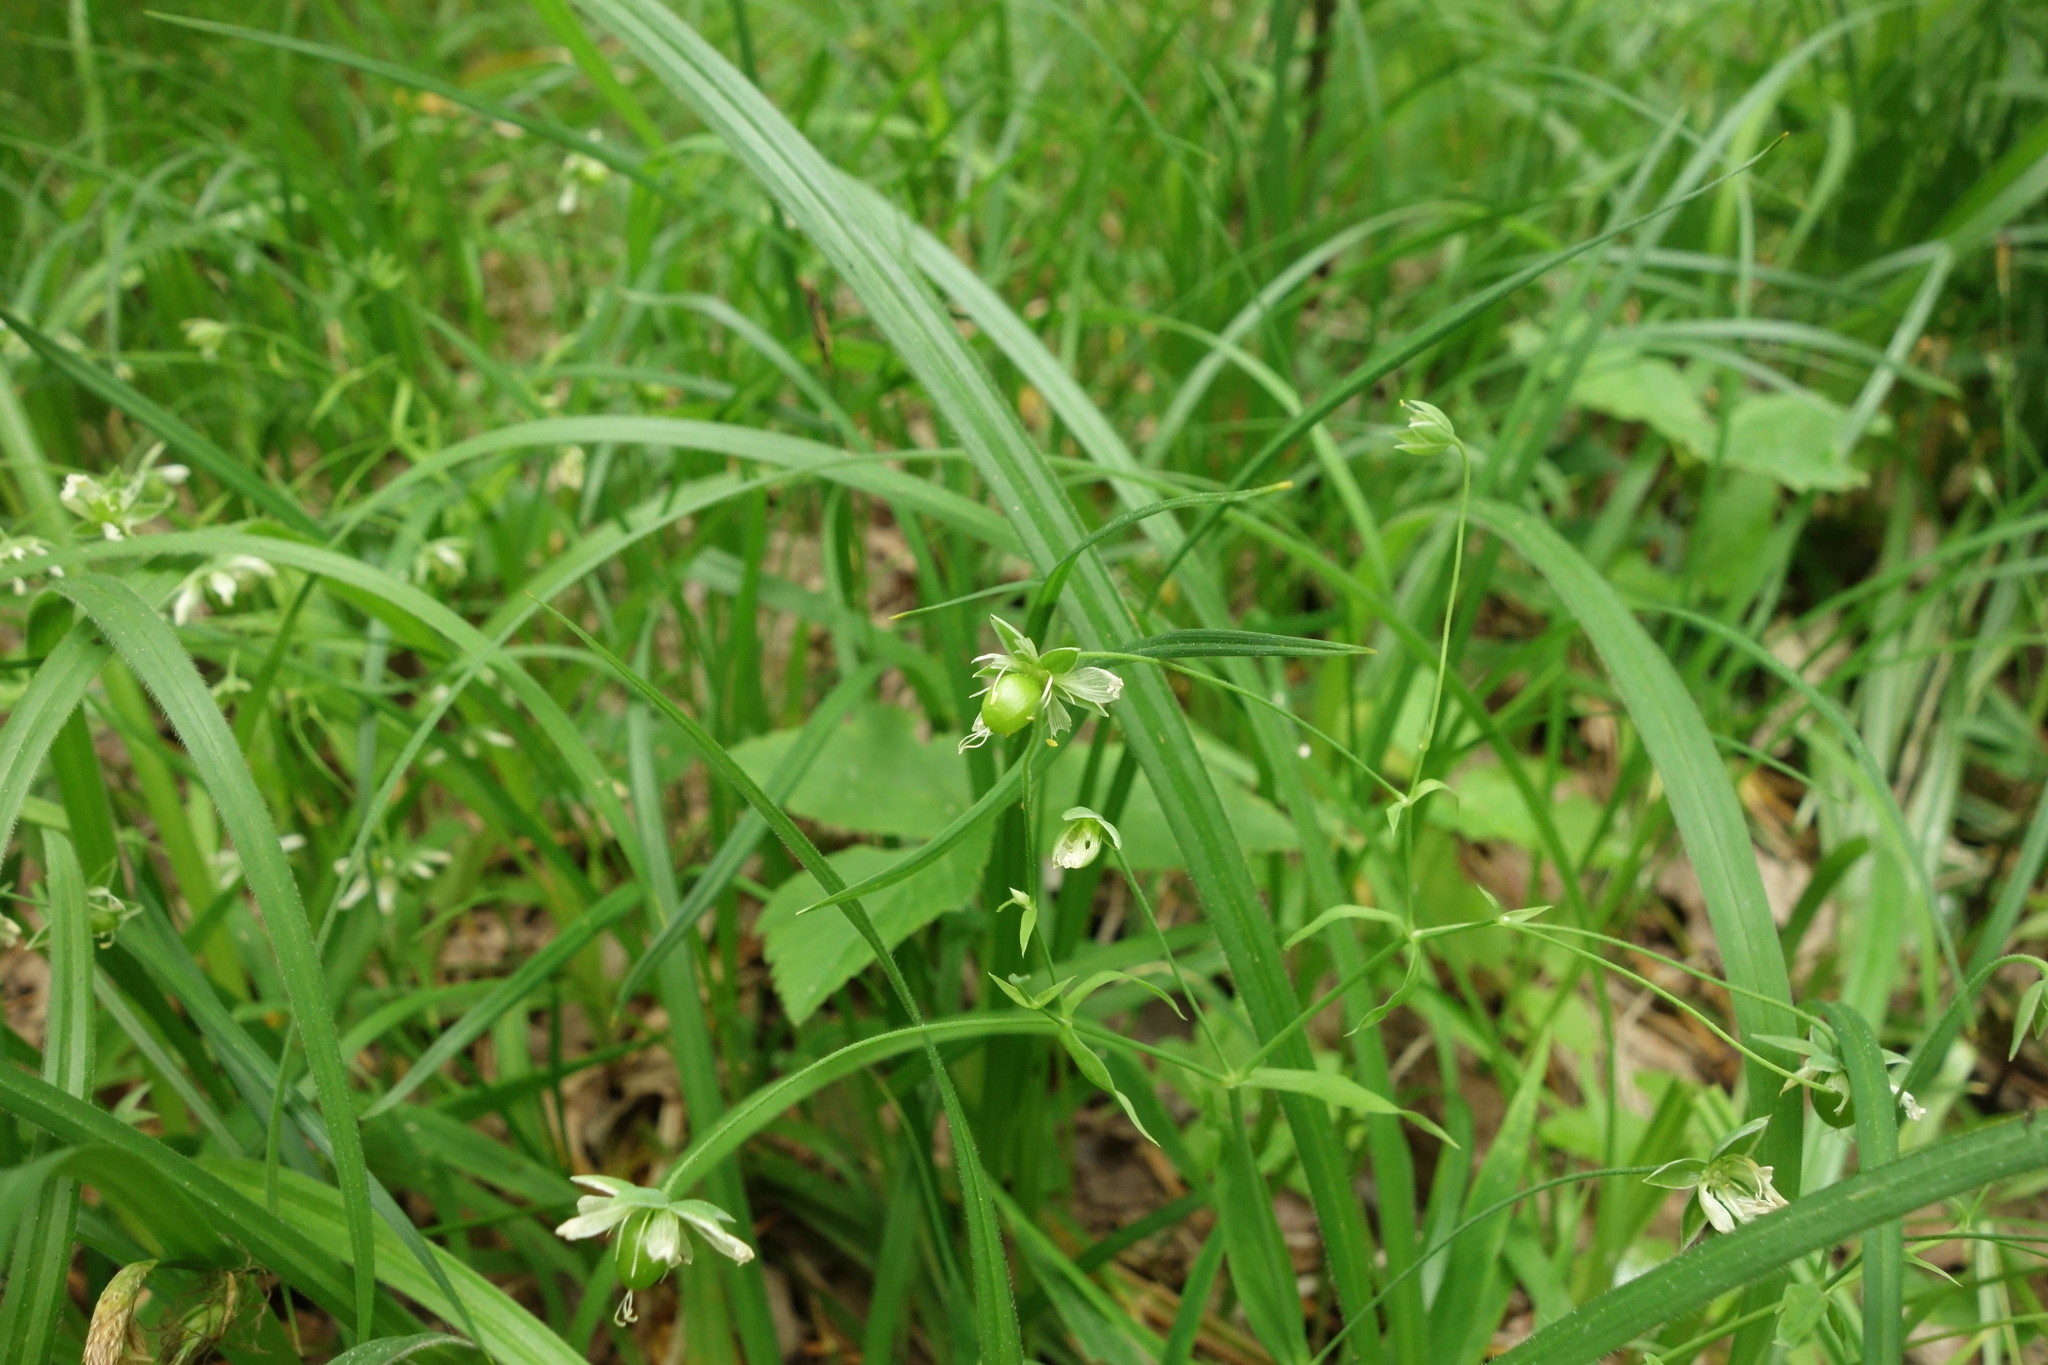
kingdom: Plantae
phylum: Tracheophyta
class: Magnoliopsida
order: Caryophyllales
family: Caryophyllaceae
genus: Rabelera
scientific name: Rabelera holostea
